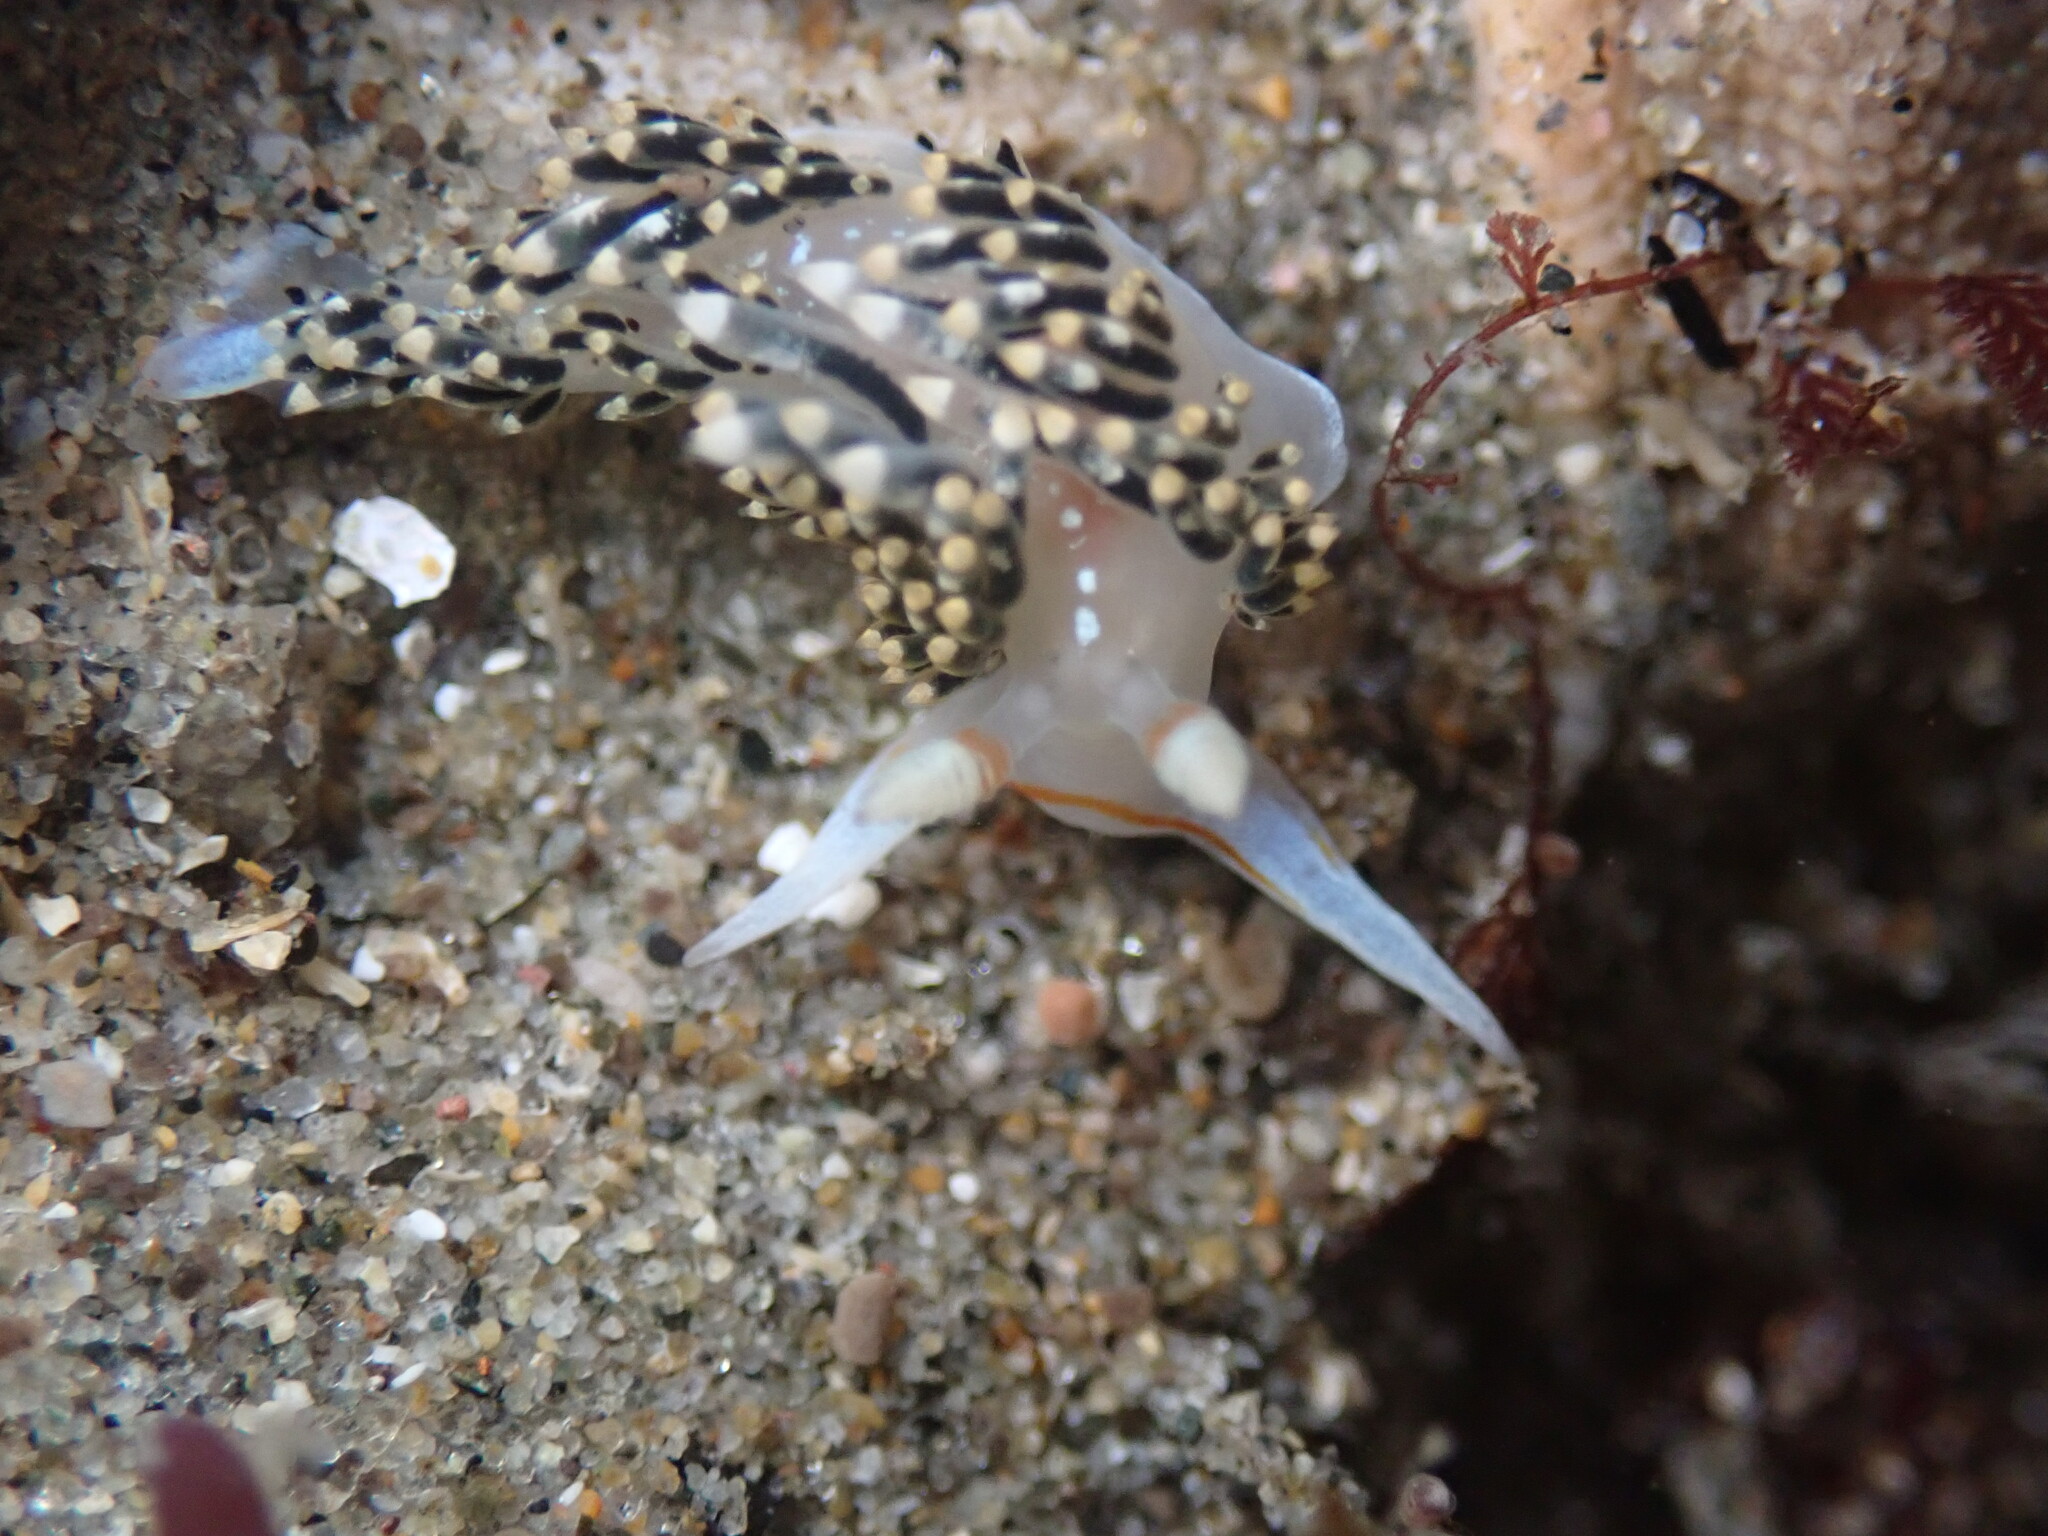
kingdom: Animalia
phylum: Mollusca
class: Gastropoda
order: Nudibranchia
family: Facelinidae
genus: Phidiana
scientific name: Phidiana hiltoni
